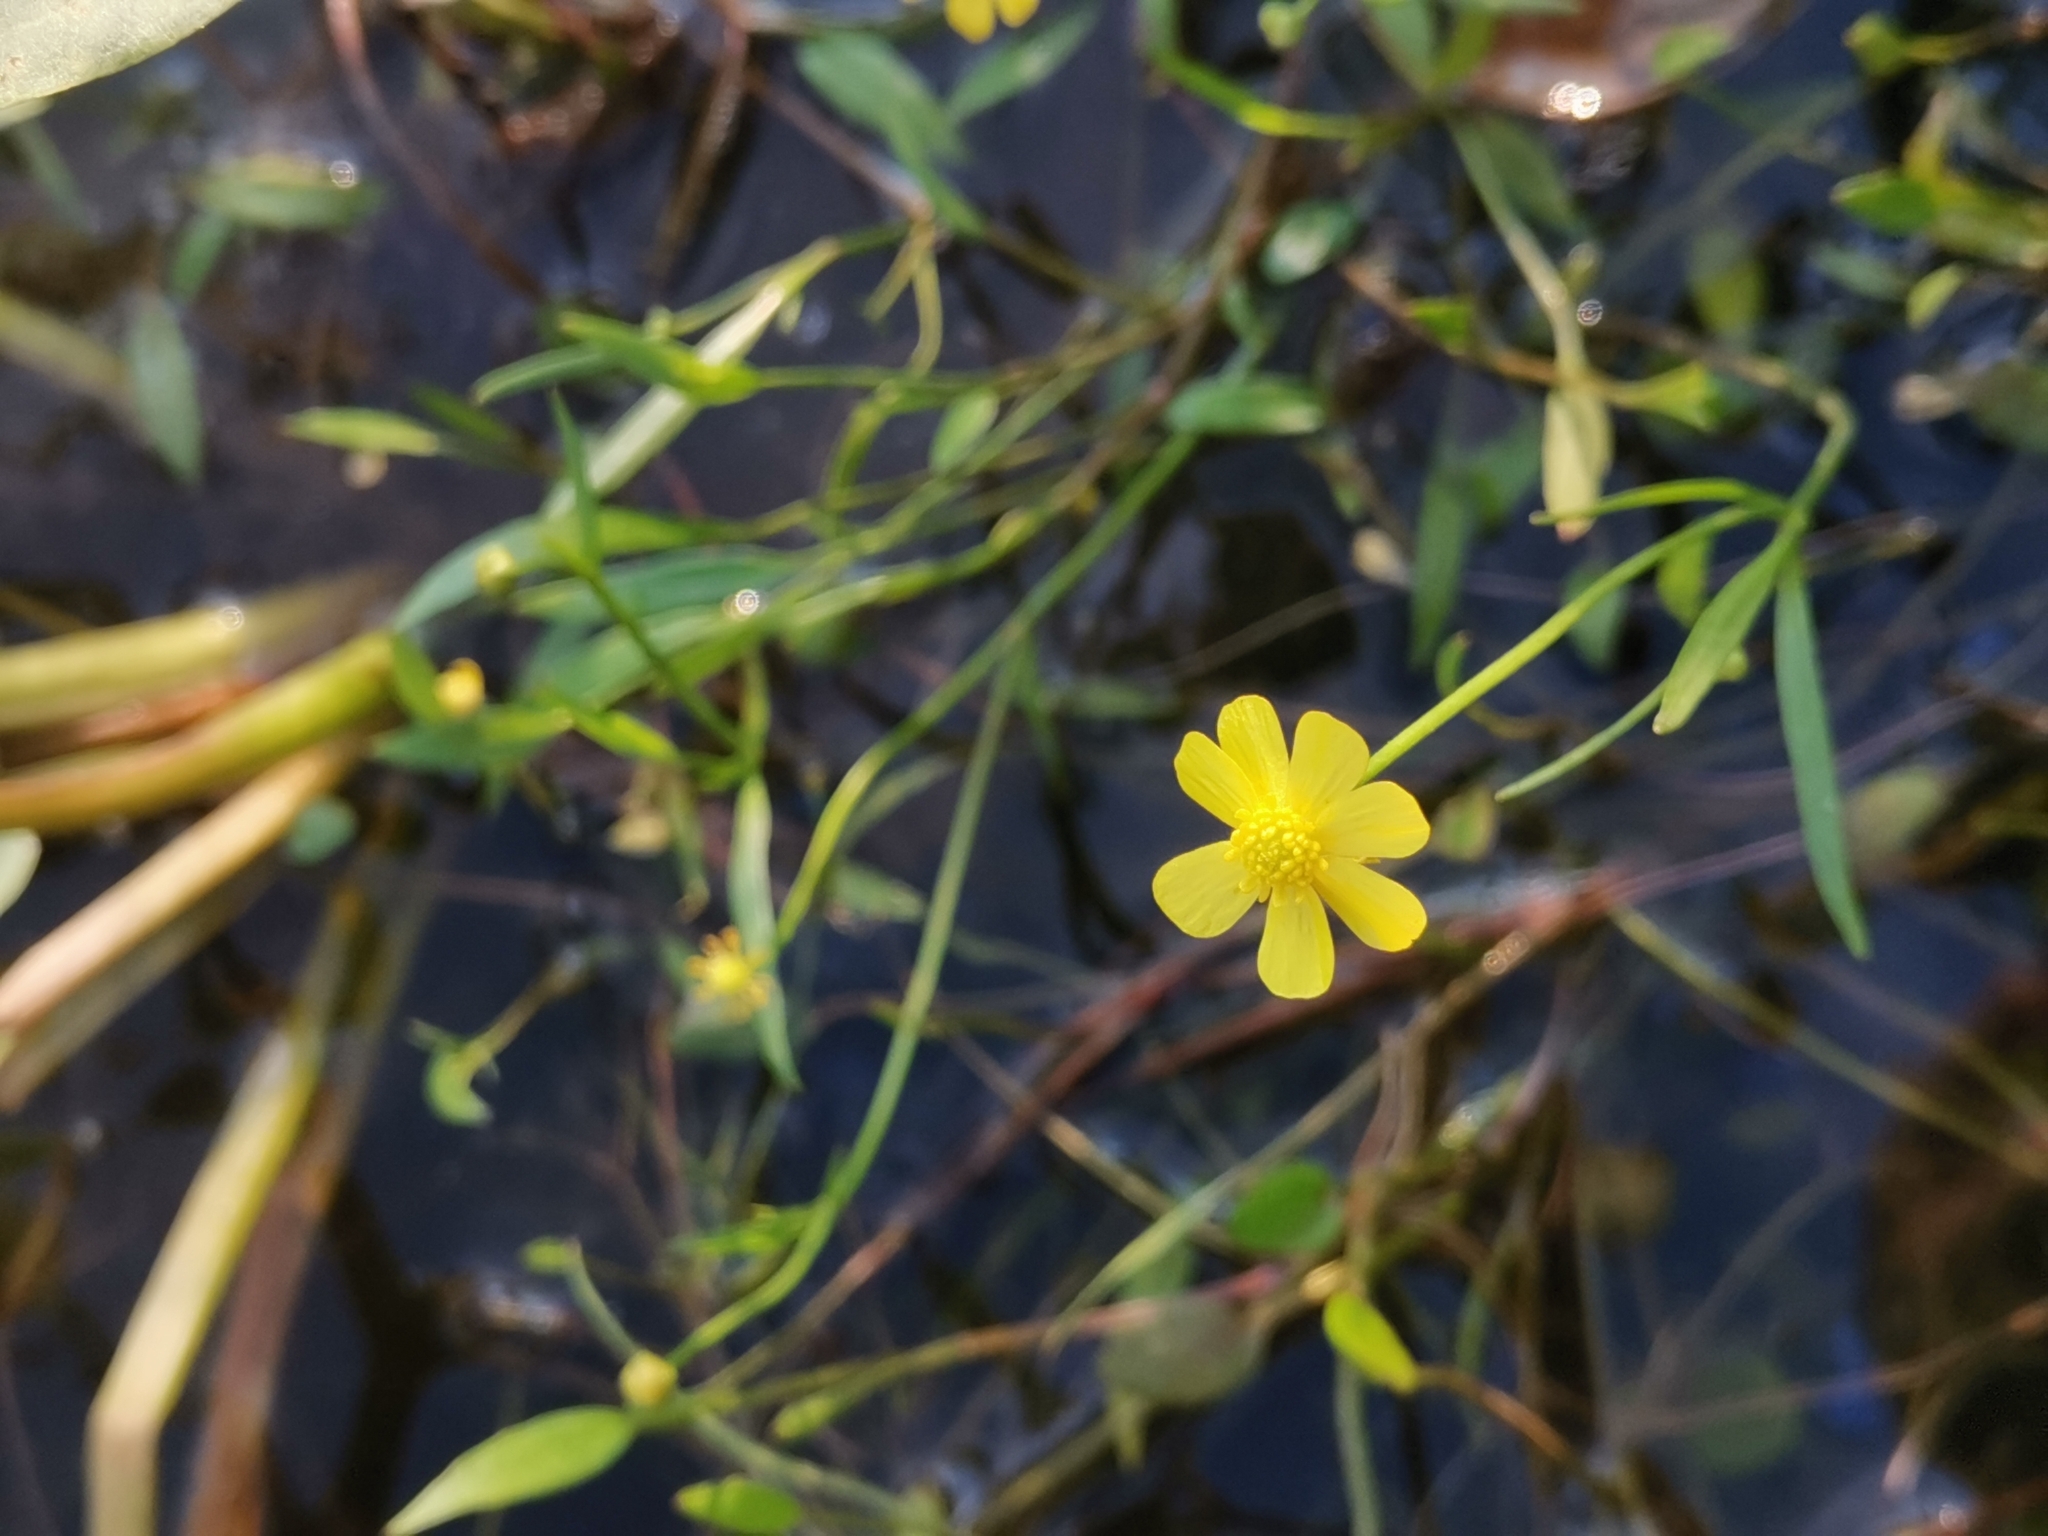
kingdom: Plantae
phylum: Tracheophyta
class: Magnoliopsida
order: Ranunculales
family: Ranunculaceae
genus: Ranunculus
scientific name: Ranunculus flammula
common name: Lesser spearwort
